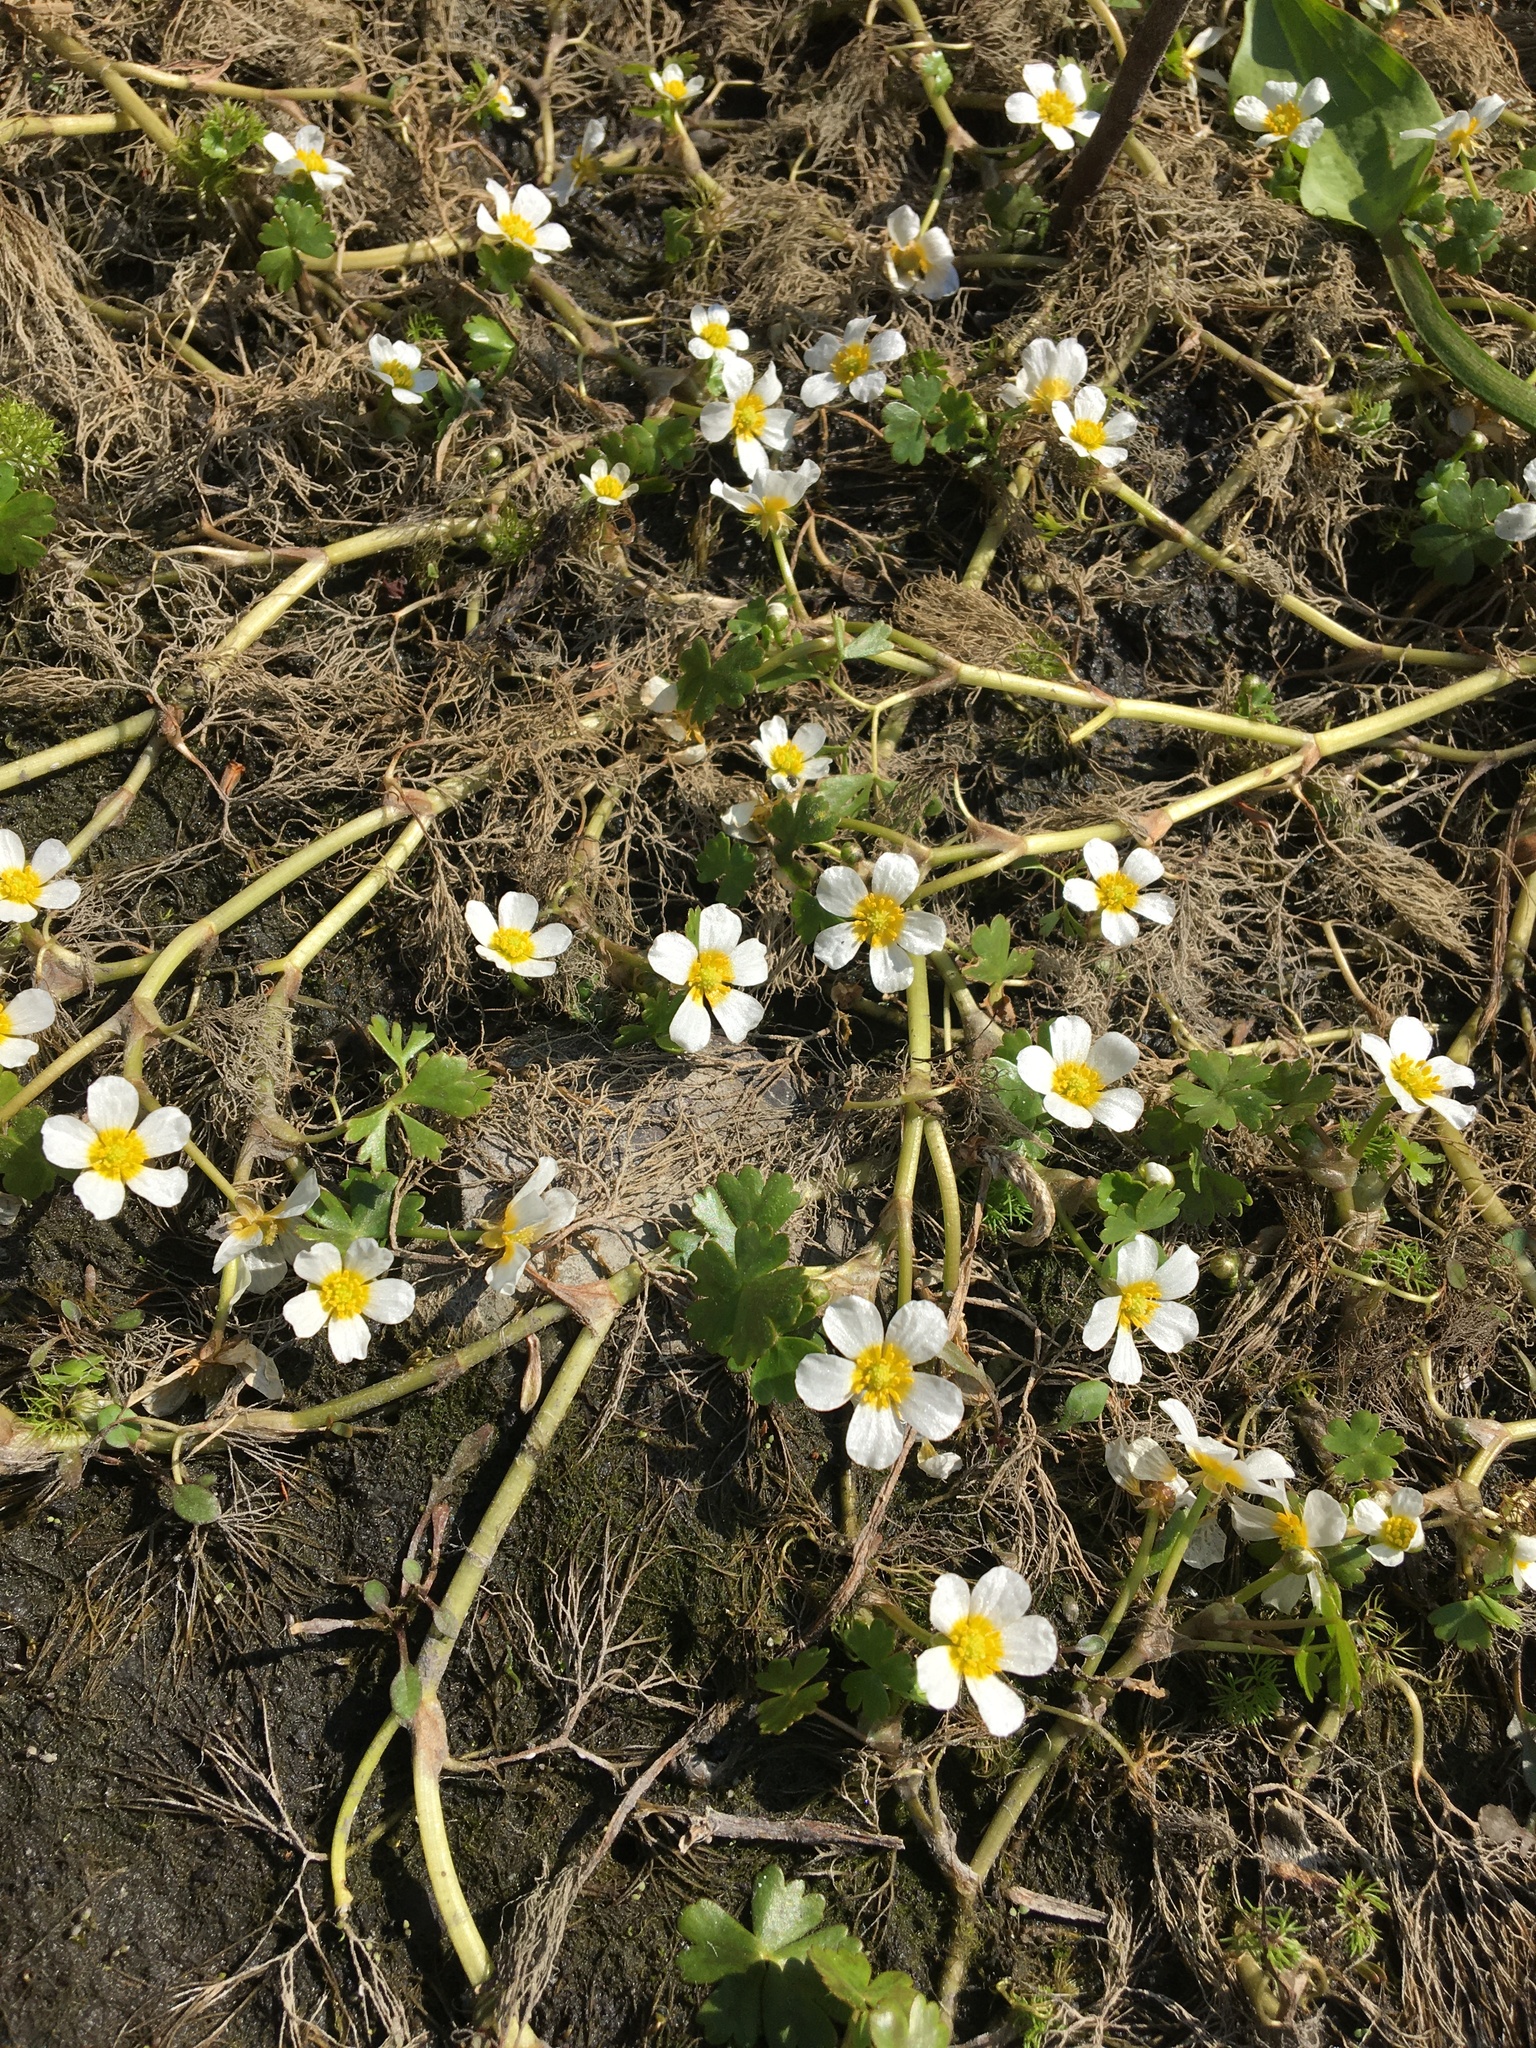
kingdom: Plantae
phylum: Tracheophyta
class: Magnoliopsida
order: Ranunculales
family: Ranunculaceae
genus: Ranunculus
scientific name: Ranunculus aquatilis
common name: Common water-crowfoot
